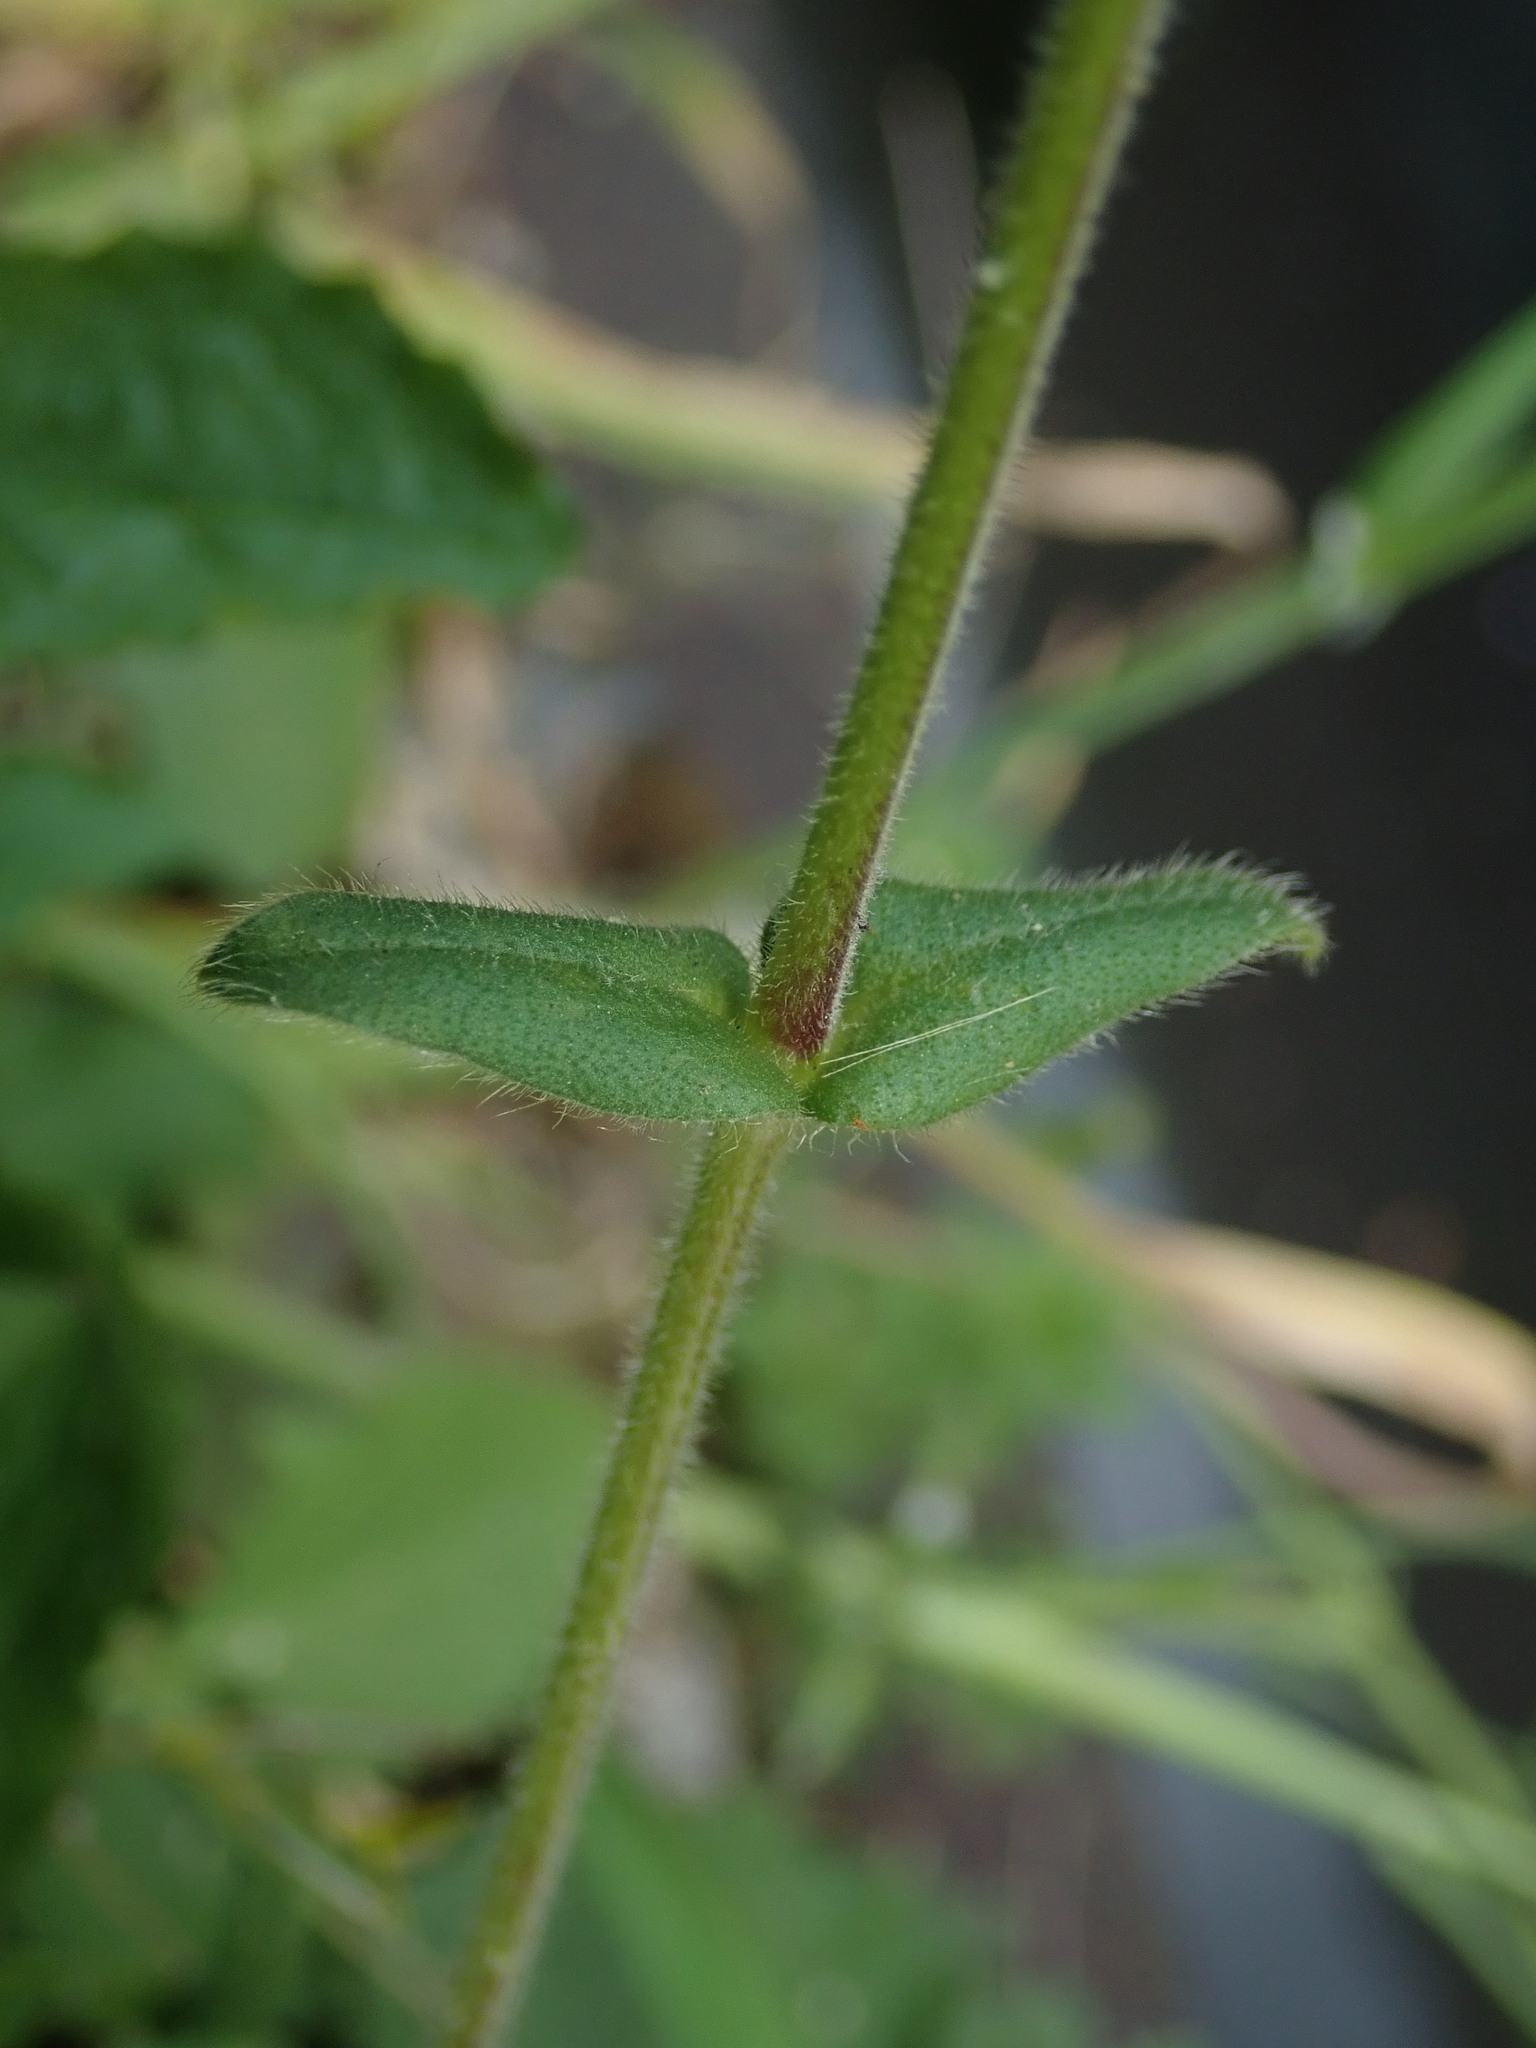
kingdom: Plantae
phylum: Tracheophyta
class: Magnoliopsida
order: Caryophyllales
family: Caryophyllaceae
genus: Cerastium
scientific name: Cerastium fontanum
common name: Common mouse-ear
